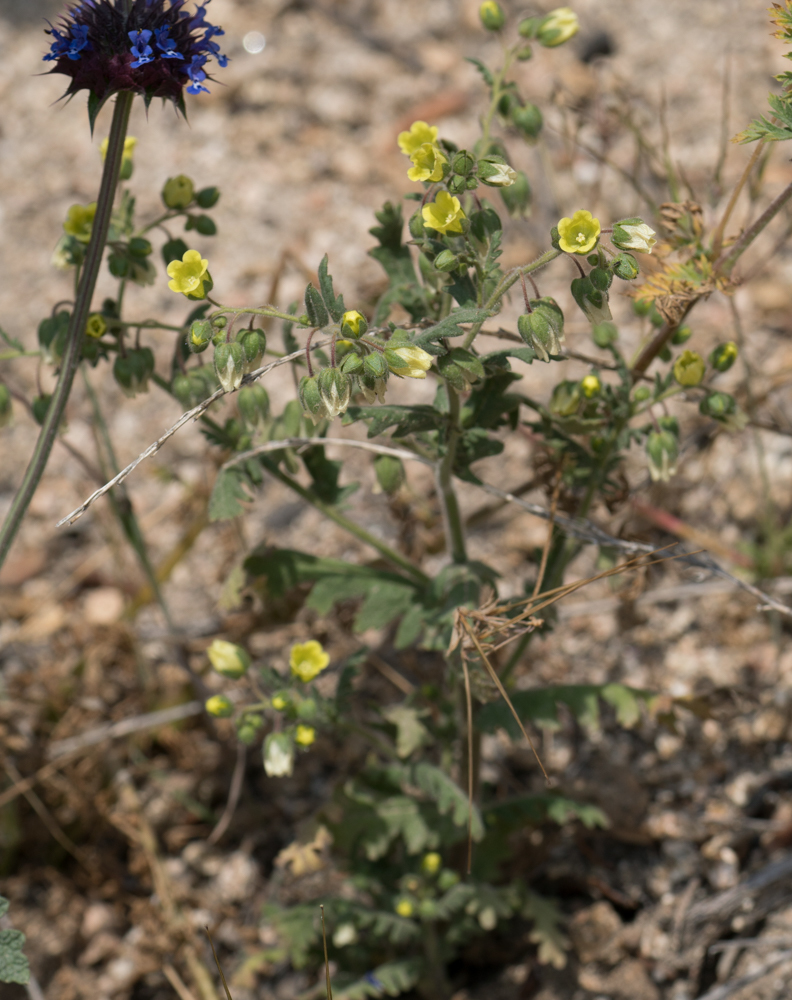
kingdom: Plantae
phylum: Tracheophyta
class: Magnoliopsida
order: Boraginales
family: Hydrophyllaceae
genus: Emmenanthe
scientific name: Emmenanthe penduliflora
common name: Whispering-bells
